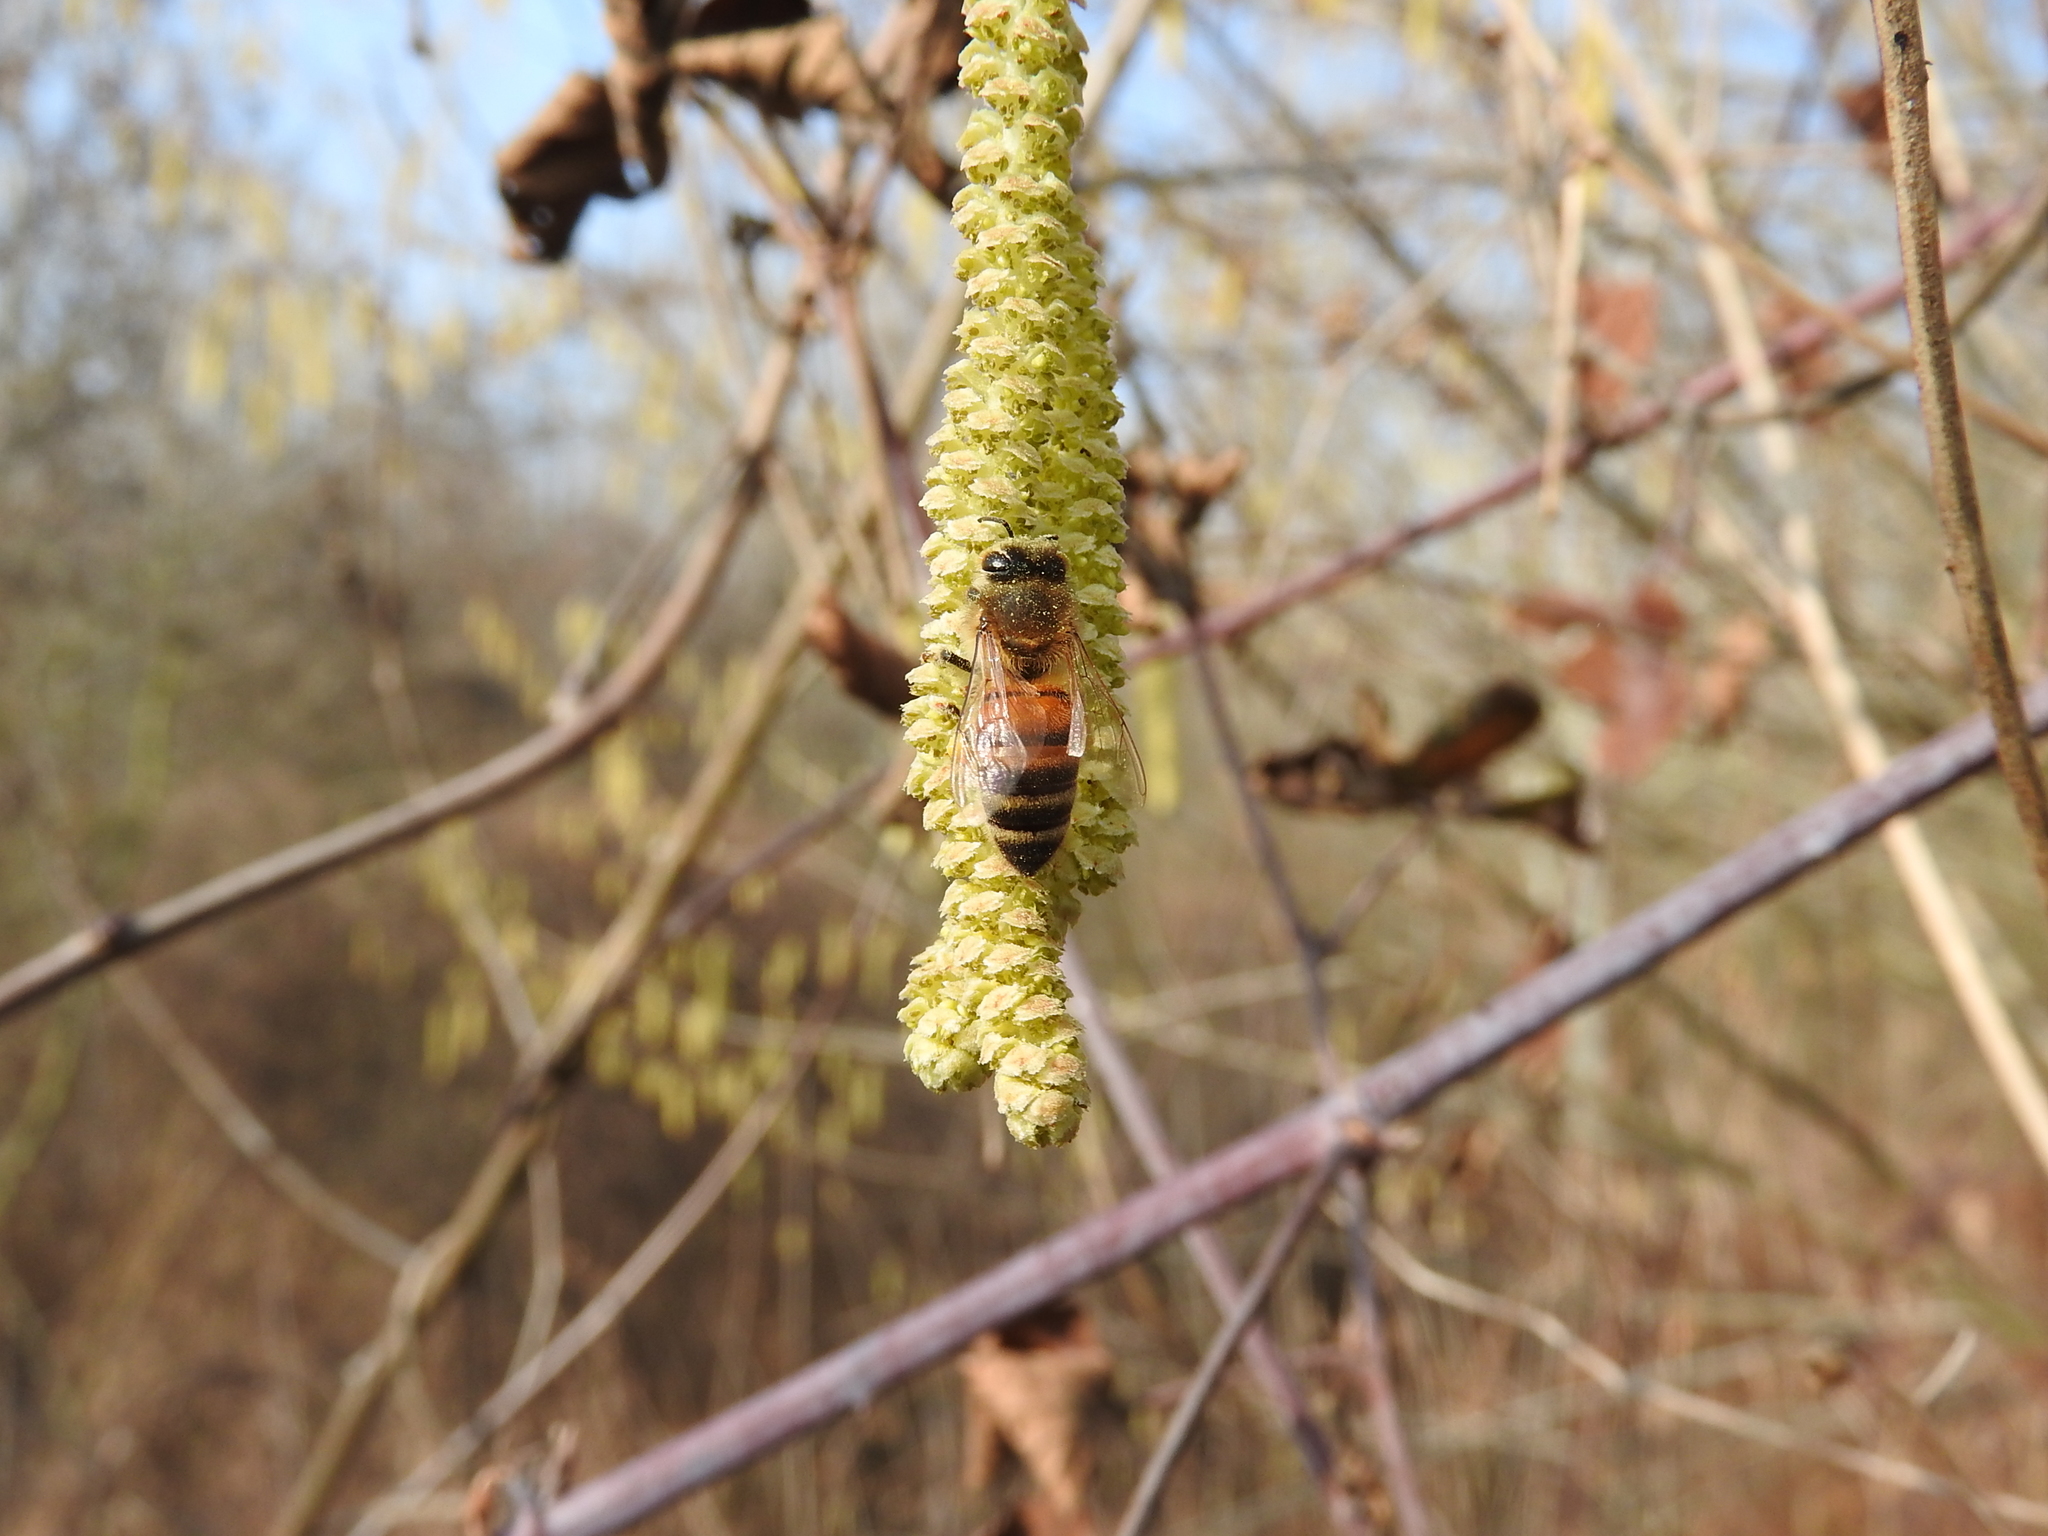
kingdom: Animalia
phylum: Arthropoda
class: Insecta
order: Hymenoptera
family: Apidae
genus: Apis
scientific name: Apis mellifera
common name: Honey bee
